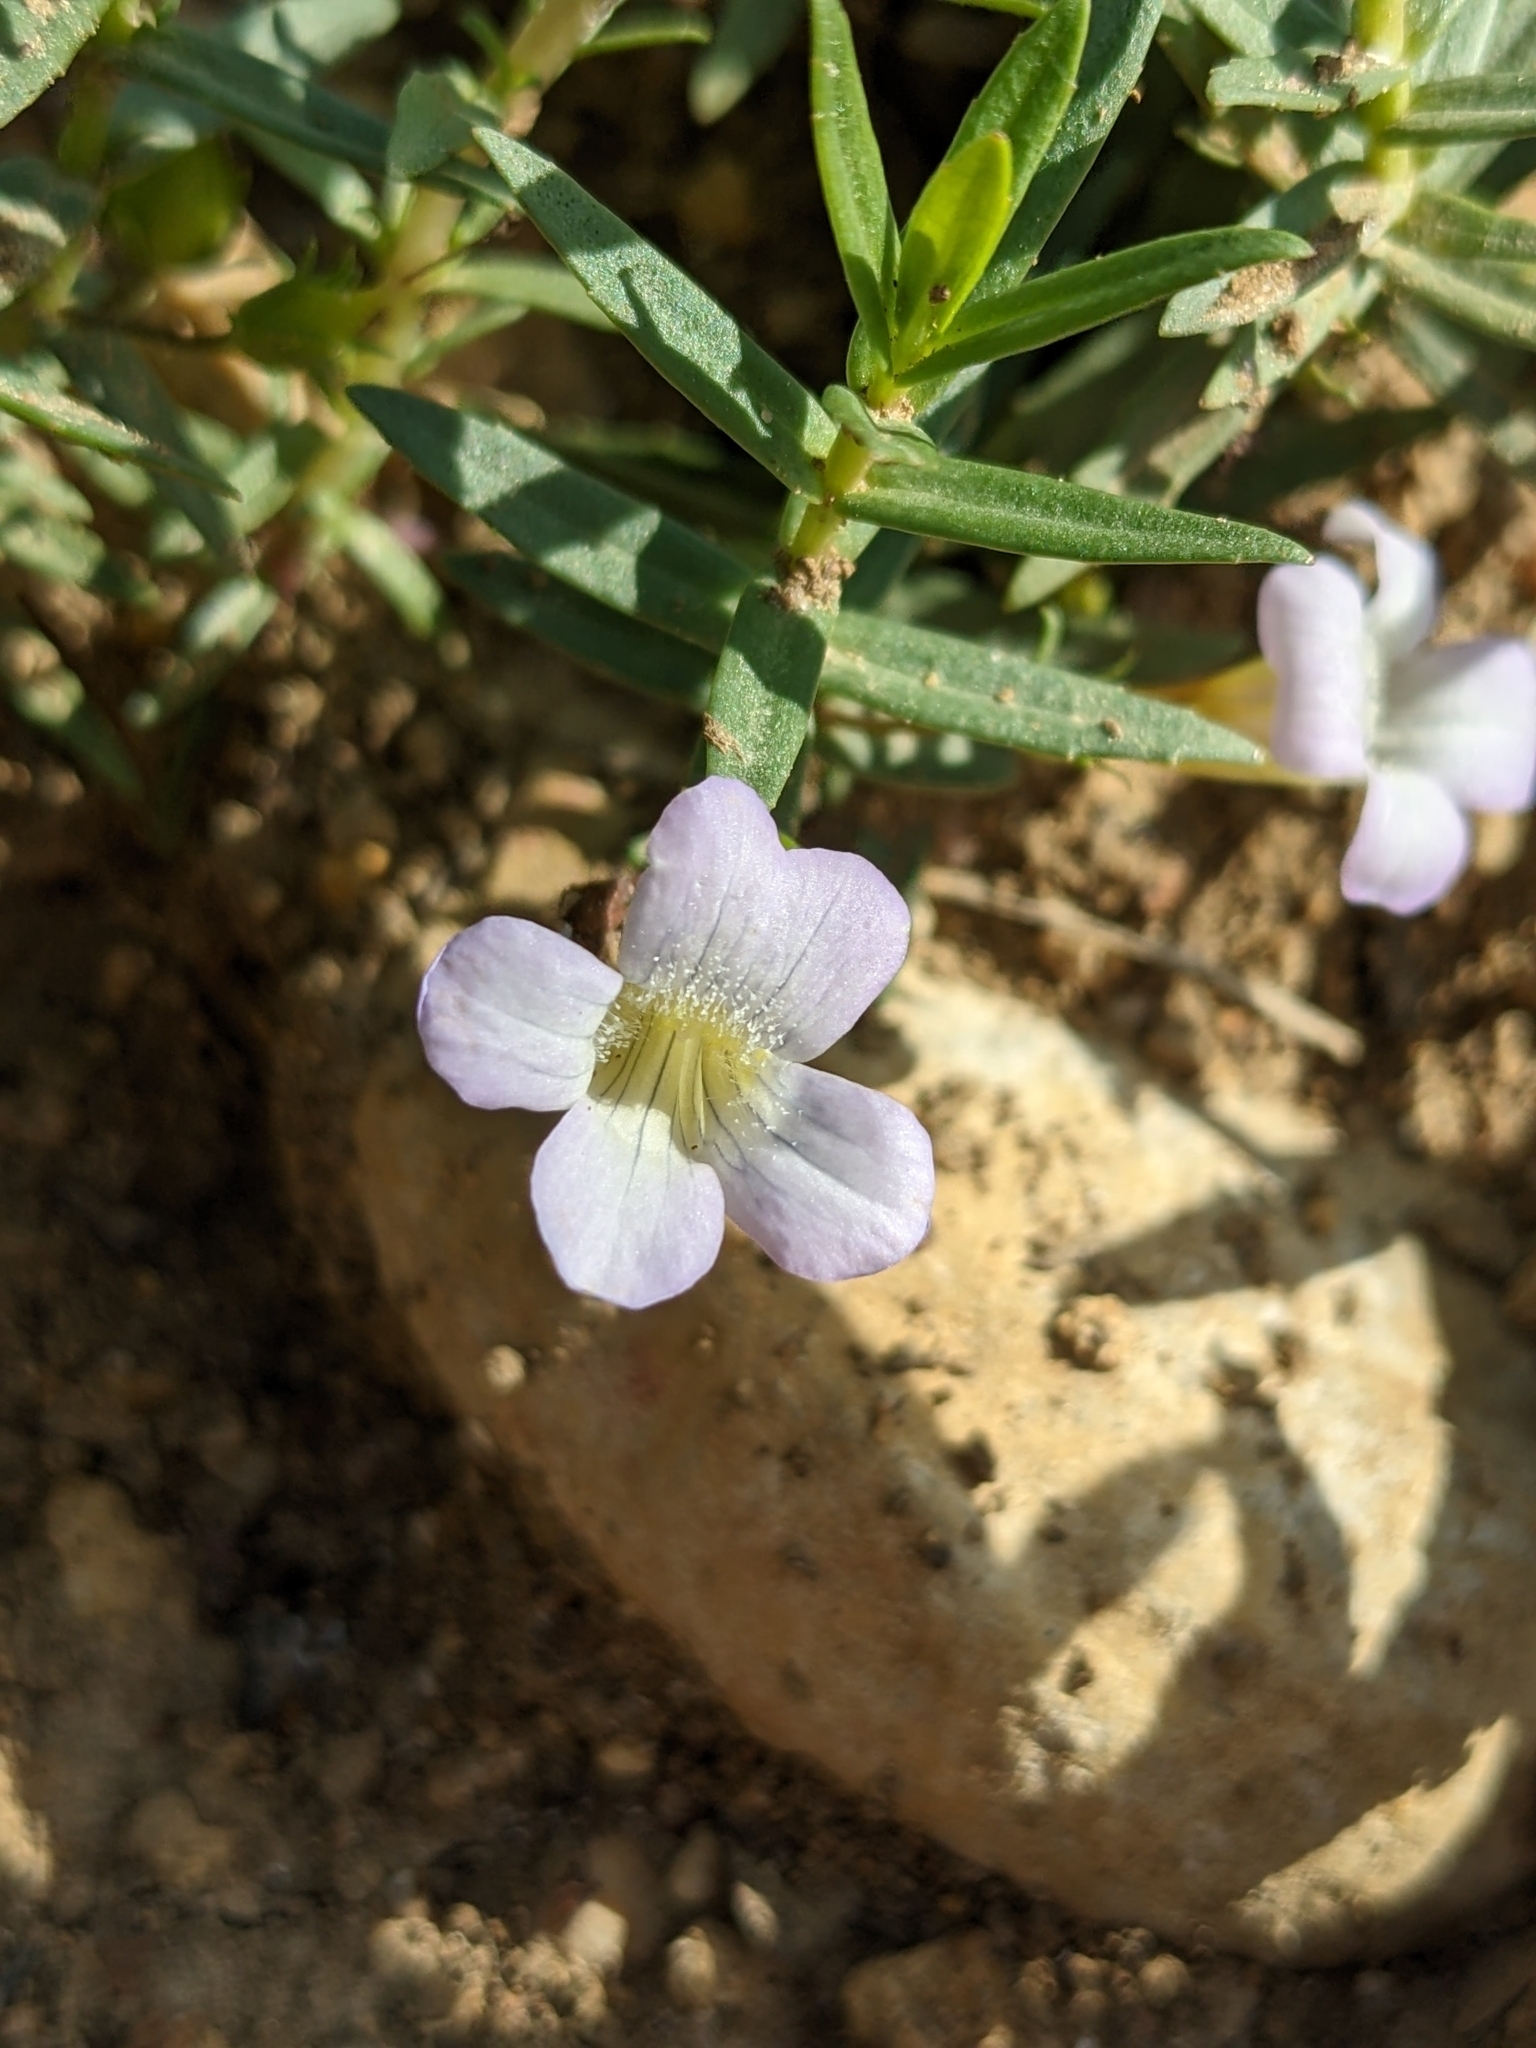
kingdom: Plantae
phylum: Tracheophyta
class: Magnoliopsida
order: Lamiales
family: Plantaginaceae
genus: Gratiola
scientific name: Gratiola officinalis
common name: Gratiola
